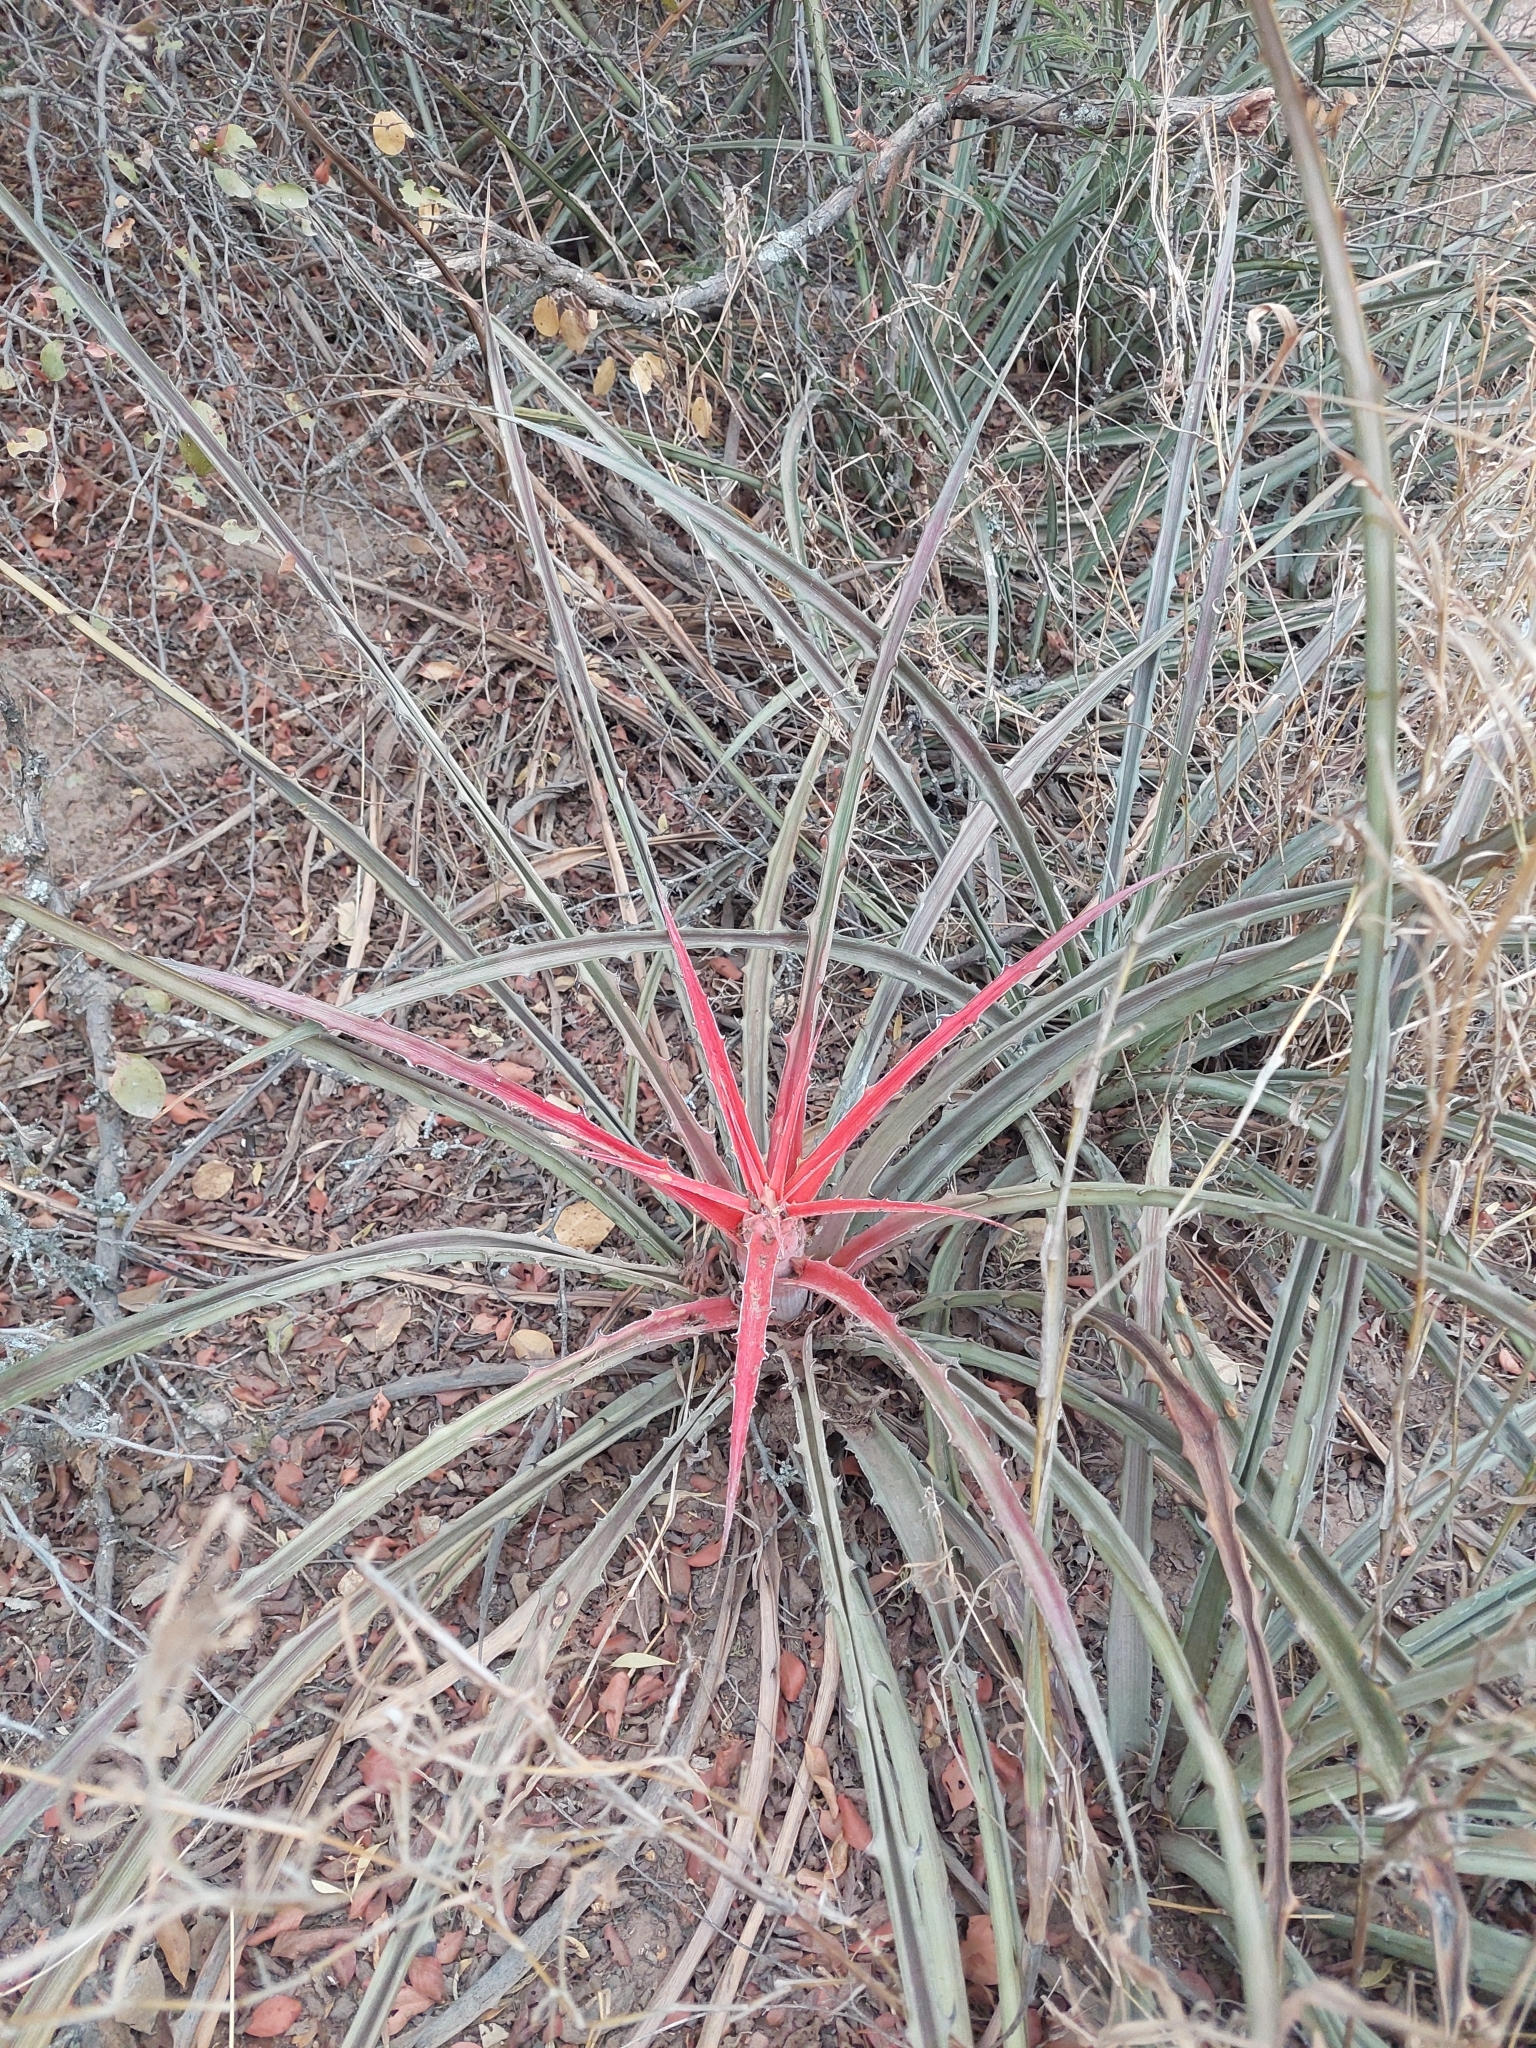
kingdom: Plantae
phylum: Tracheophyta
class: Liliopsida
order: Poales
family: Bromeliaceae
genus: Bromelia
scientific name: Bromelia serra
